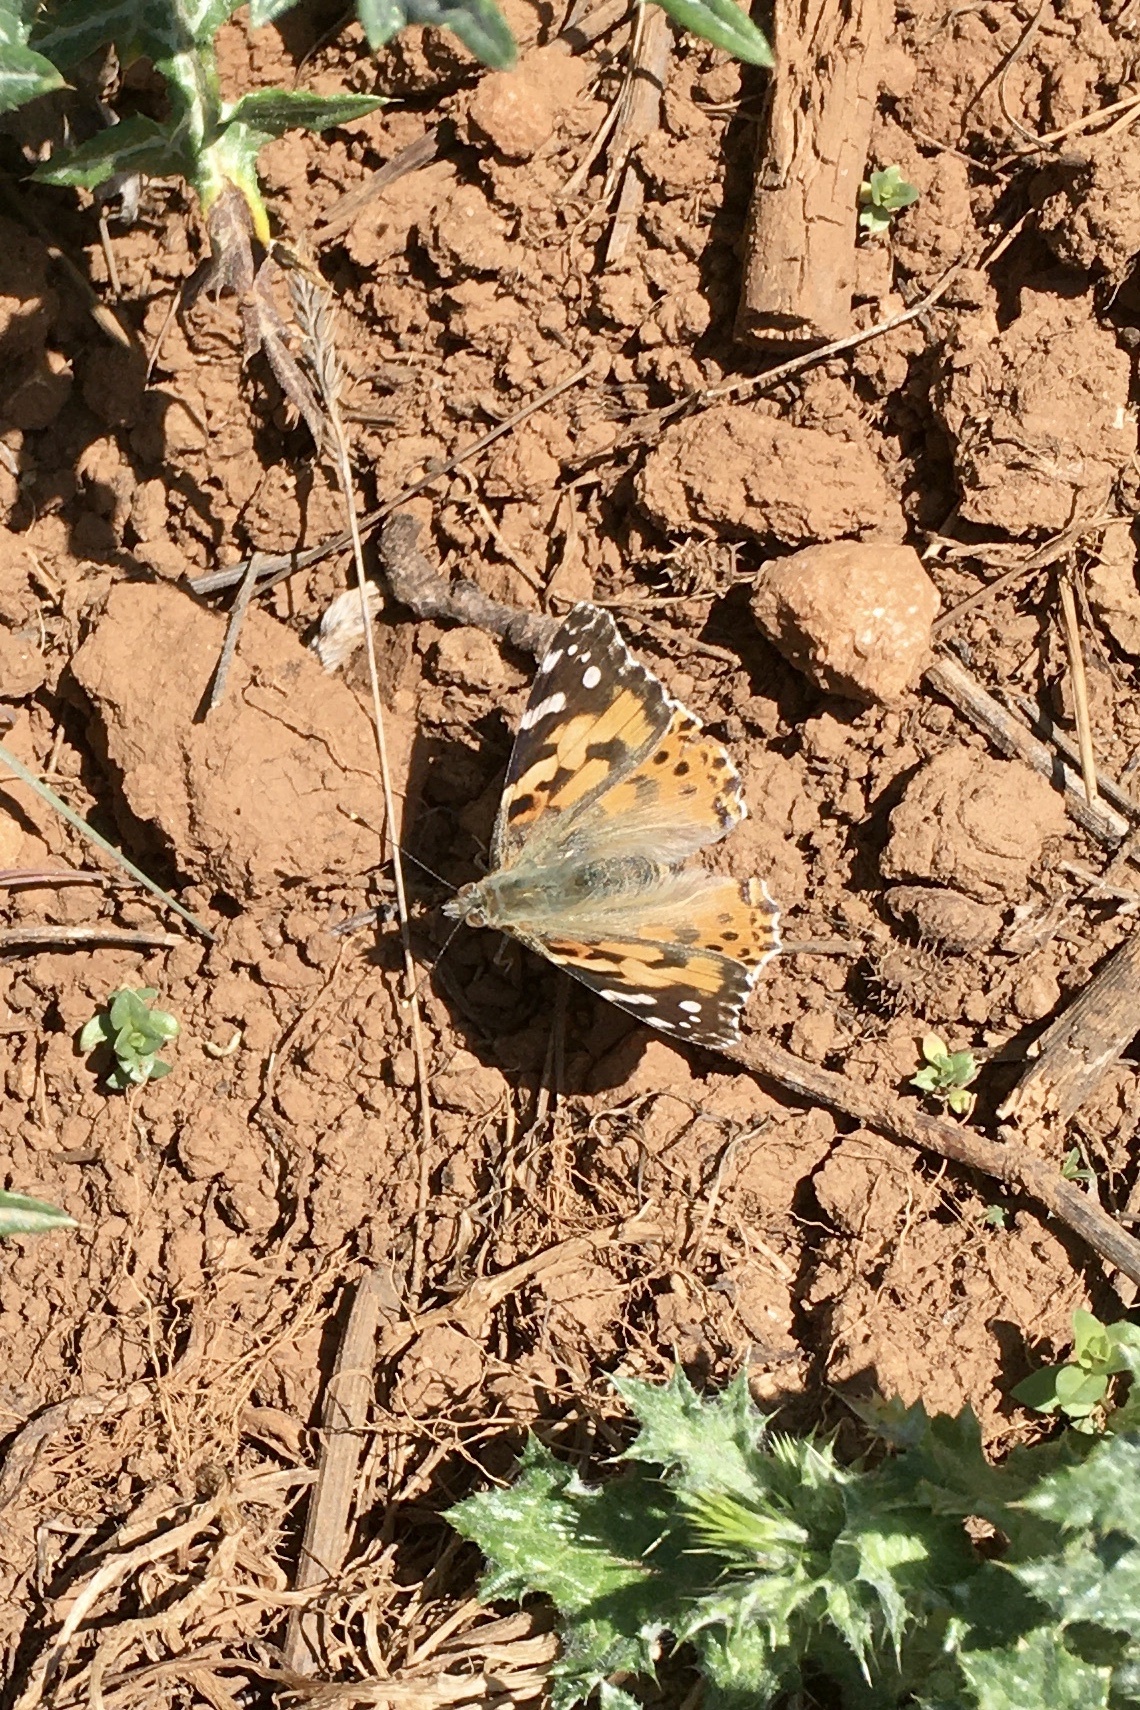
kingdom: Animalia
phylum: Arthropoda
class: Insecta
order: Lepidoptera
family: Nymphalidae
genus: Vanessa
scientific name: Vanessa cardui
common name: Painted lady
